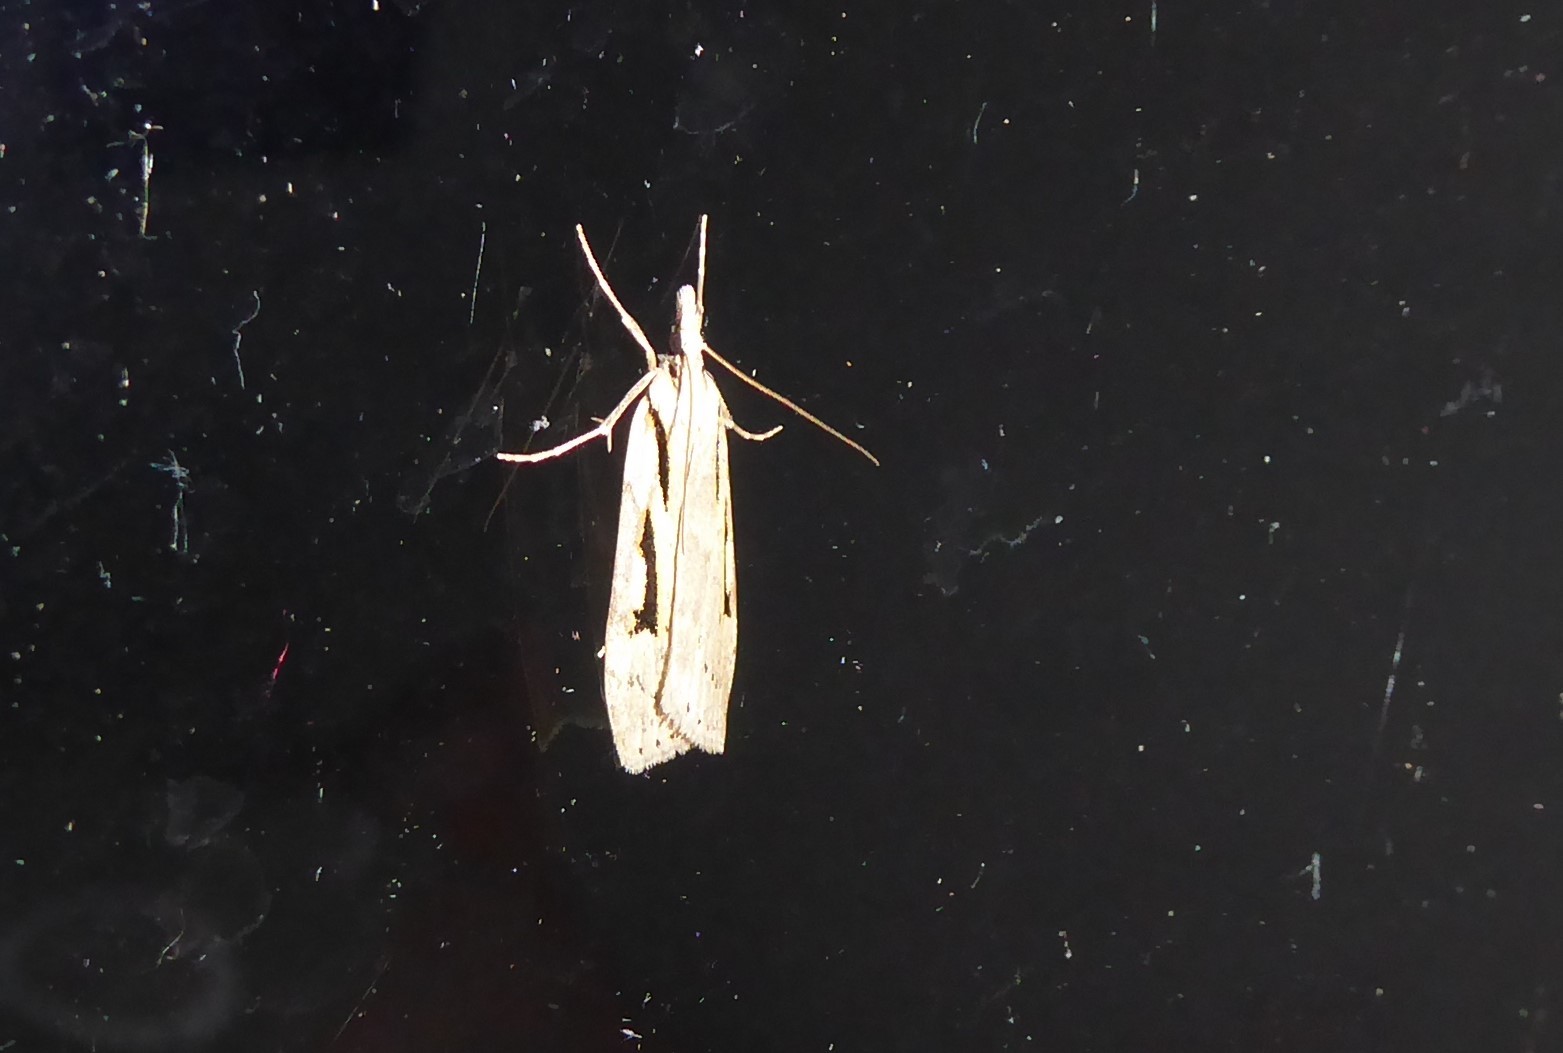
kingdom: Animalia
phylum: Arthropoda
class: Insecta
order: Lepidoptera
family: Crambidae
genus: Scoparia
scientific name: Scoparia rotuellus
